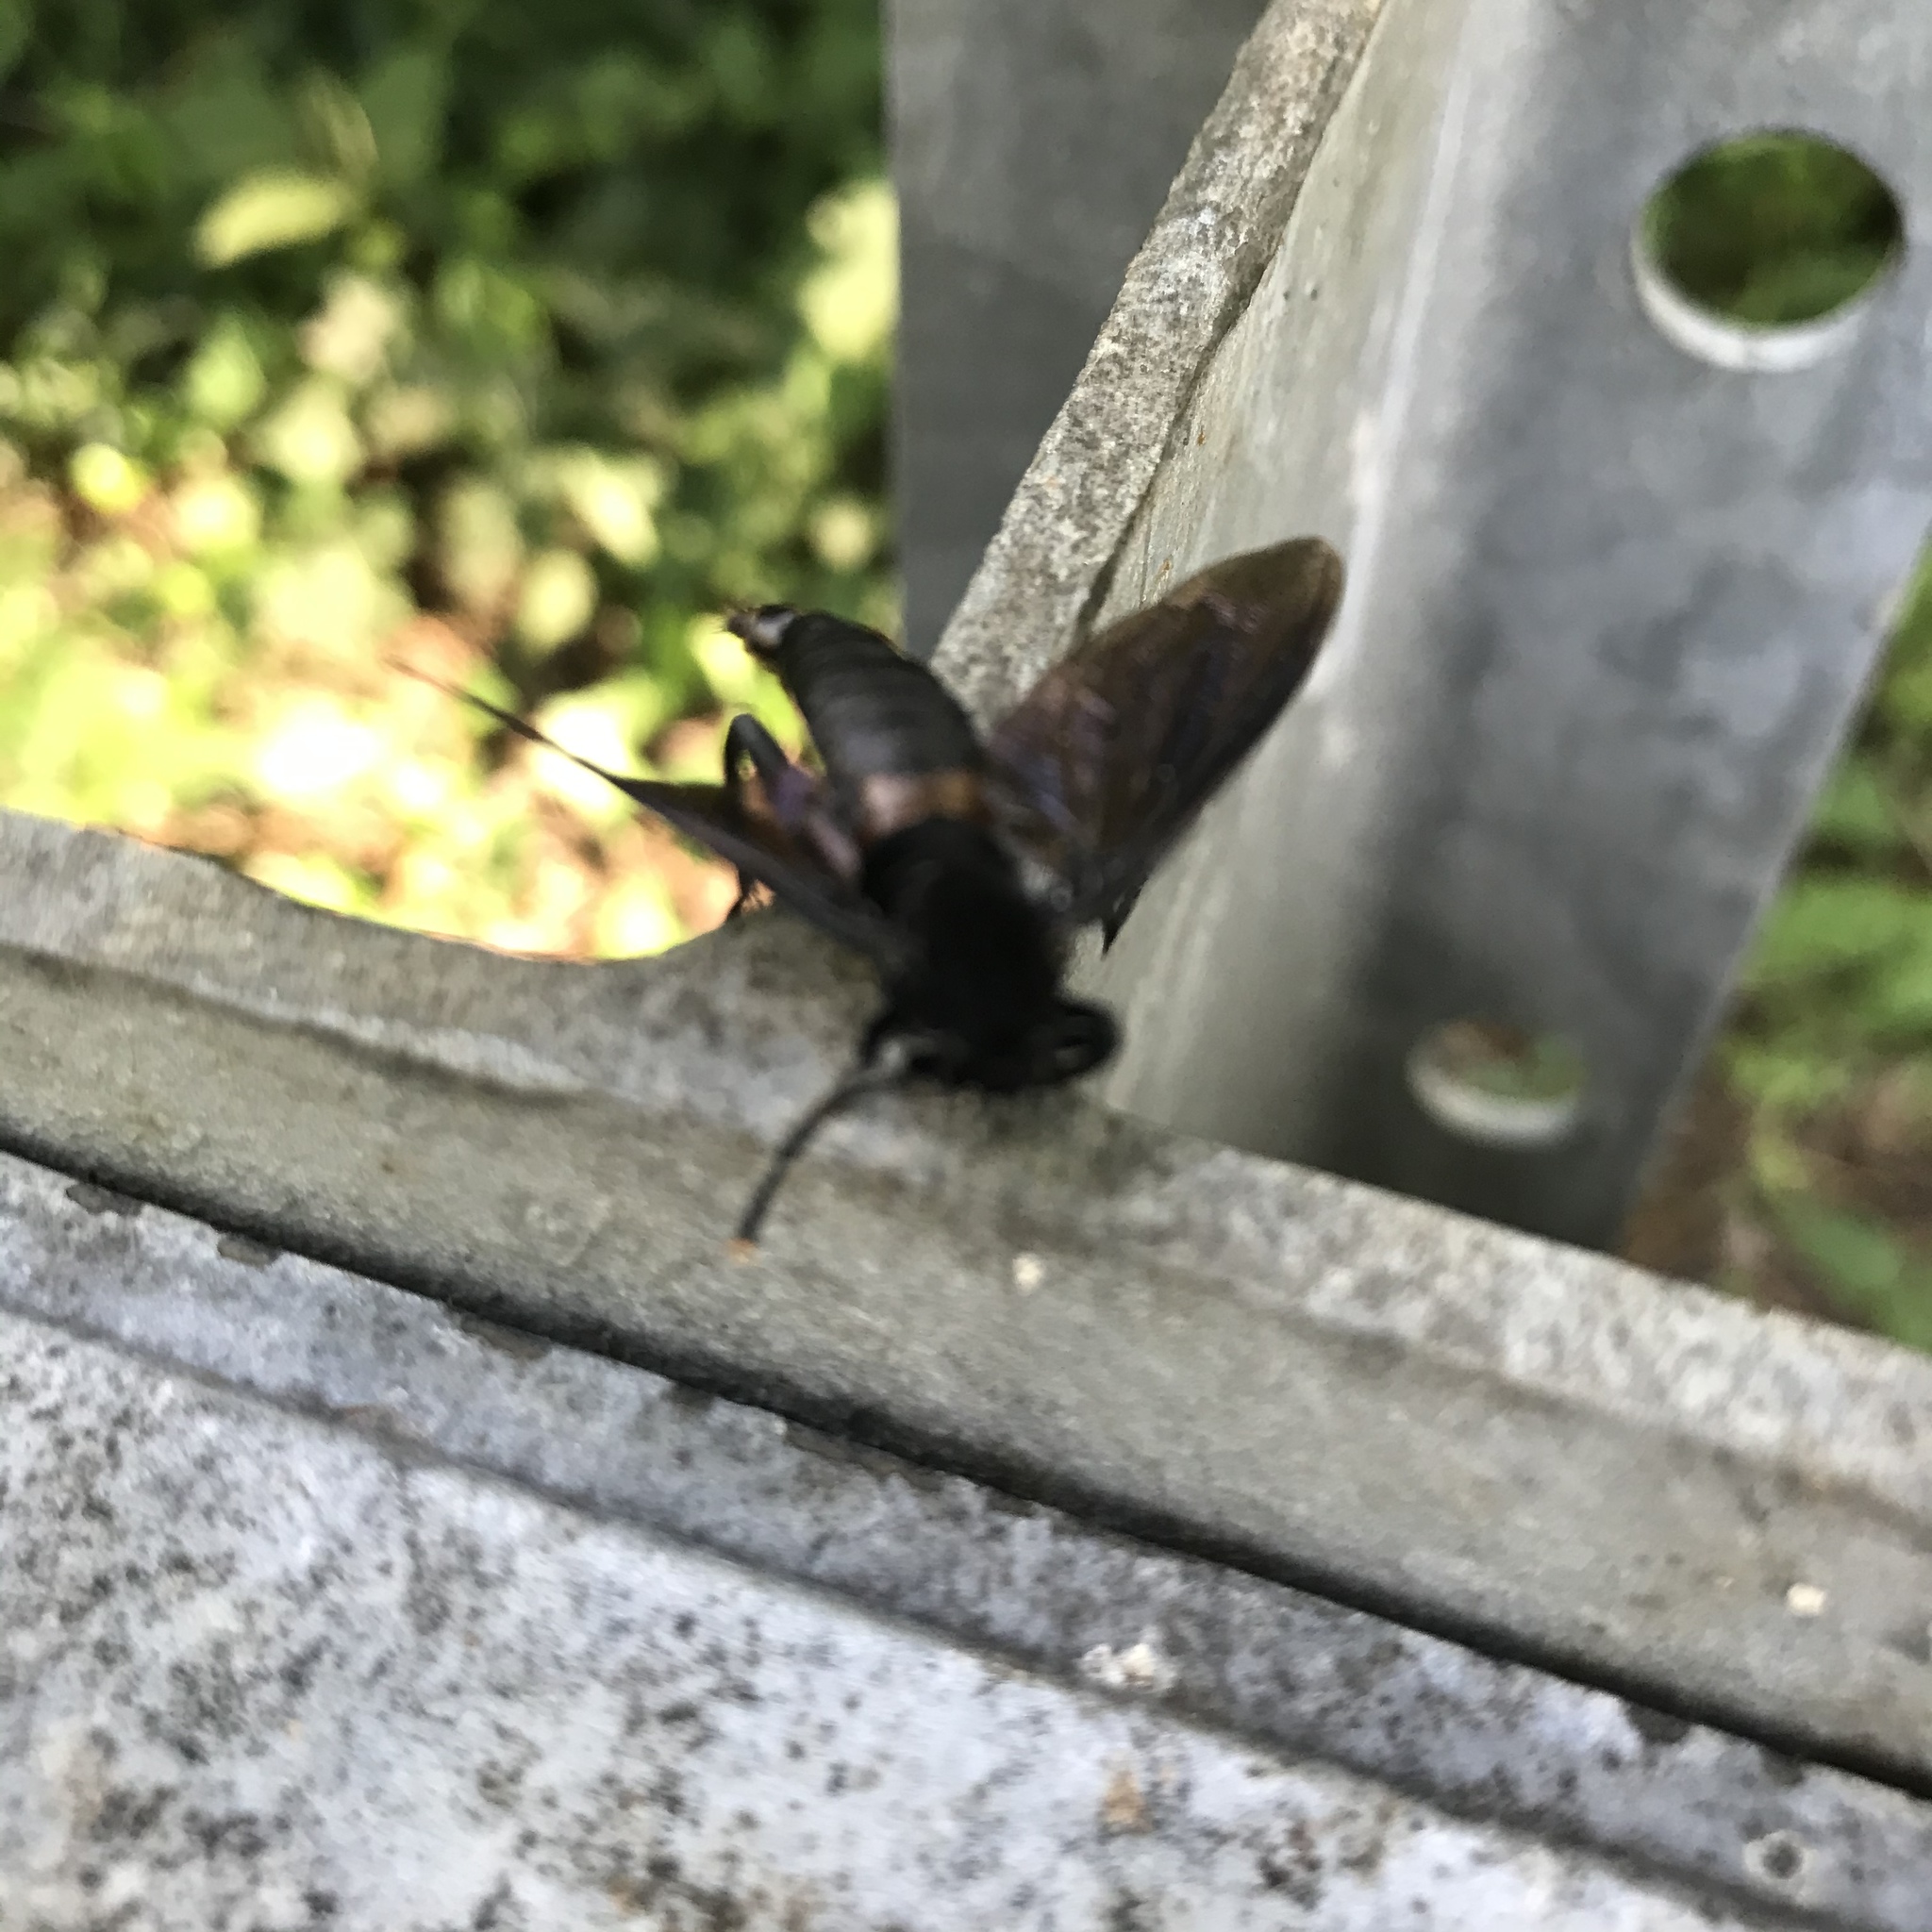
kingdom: Animalia
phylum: Arthropoda
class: Insecta
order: Diptera
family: Mydidae
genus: Mydas
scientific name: Mydas clavatus
